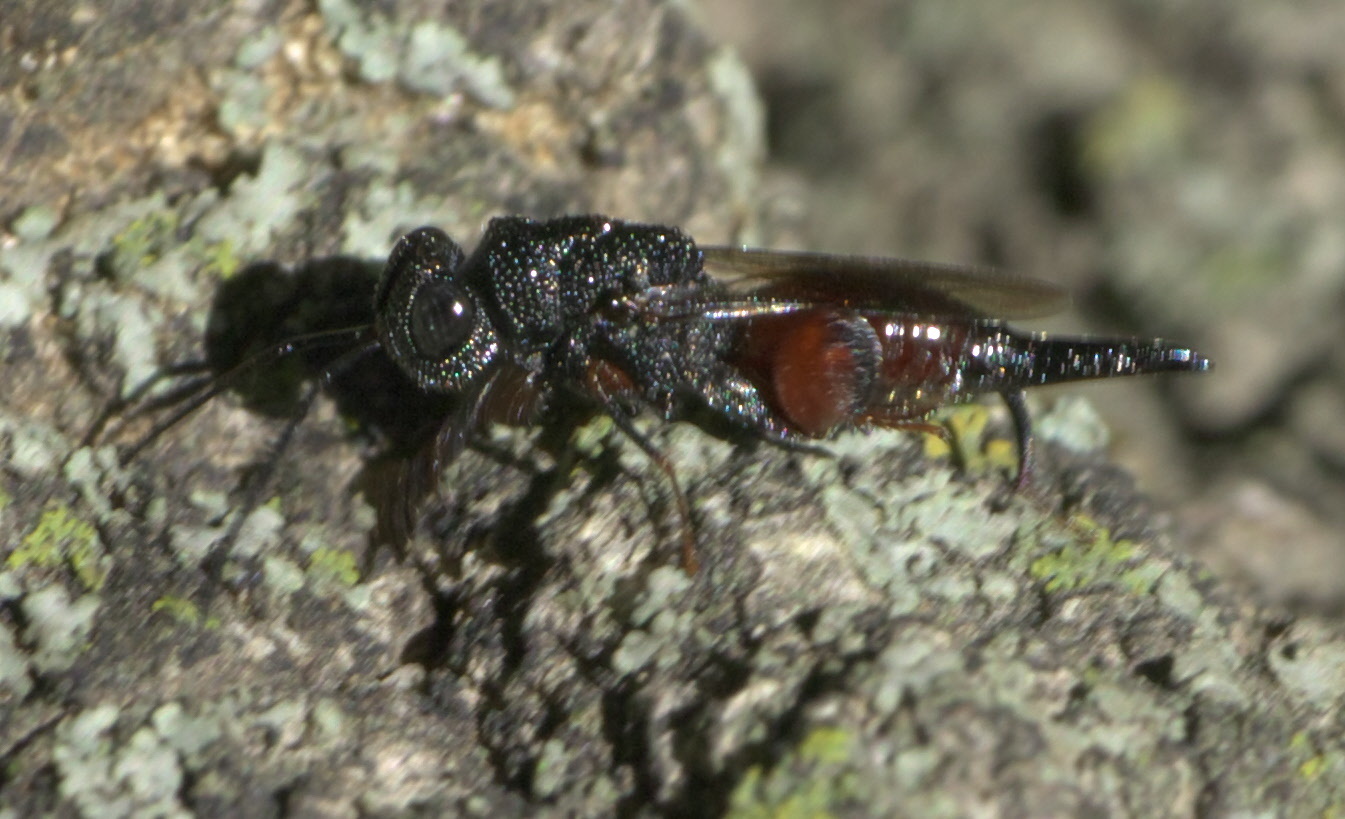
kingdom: Animalia
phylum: Arthropoda
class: Insecta
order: Hymenoptera
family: Chalcididae
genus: Phasgonophora
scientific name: Phasgonophora sulcata
